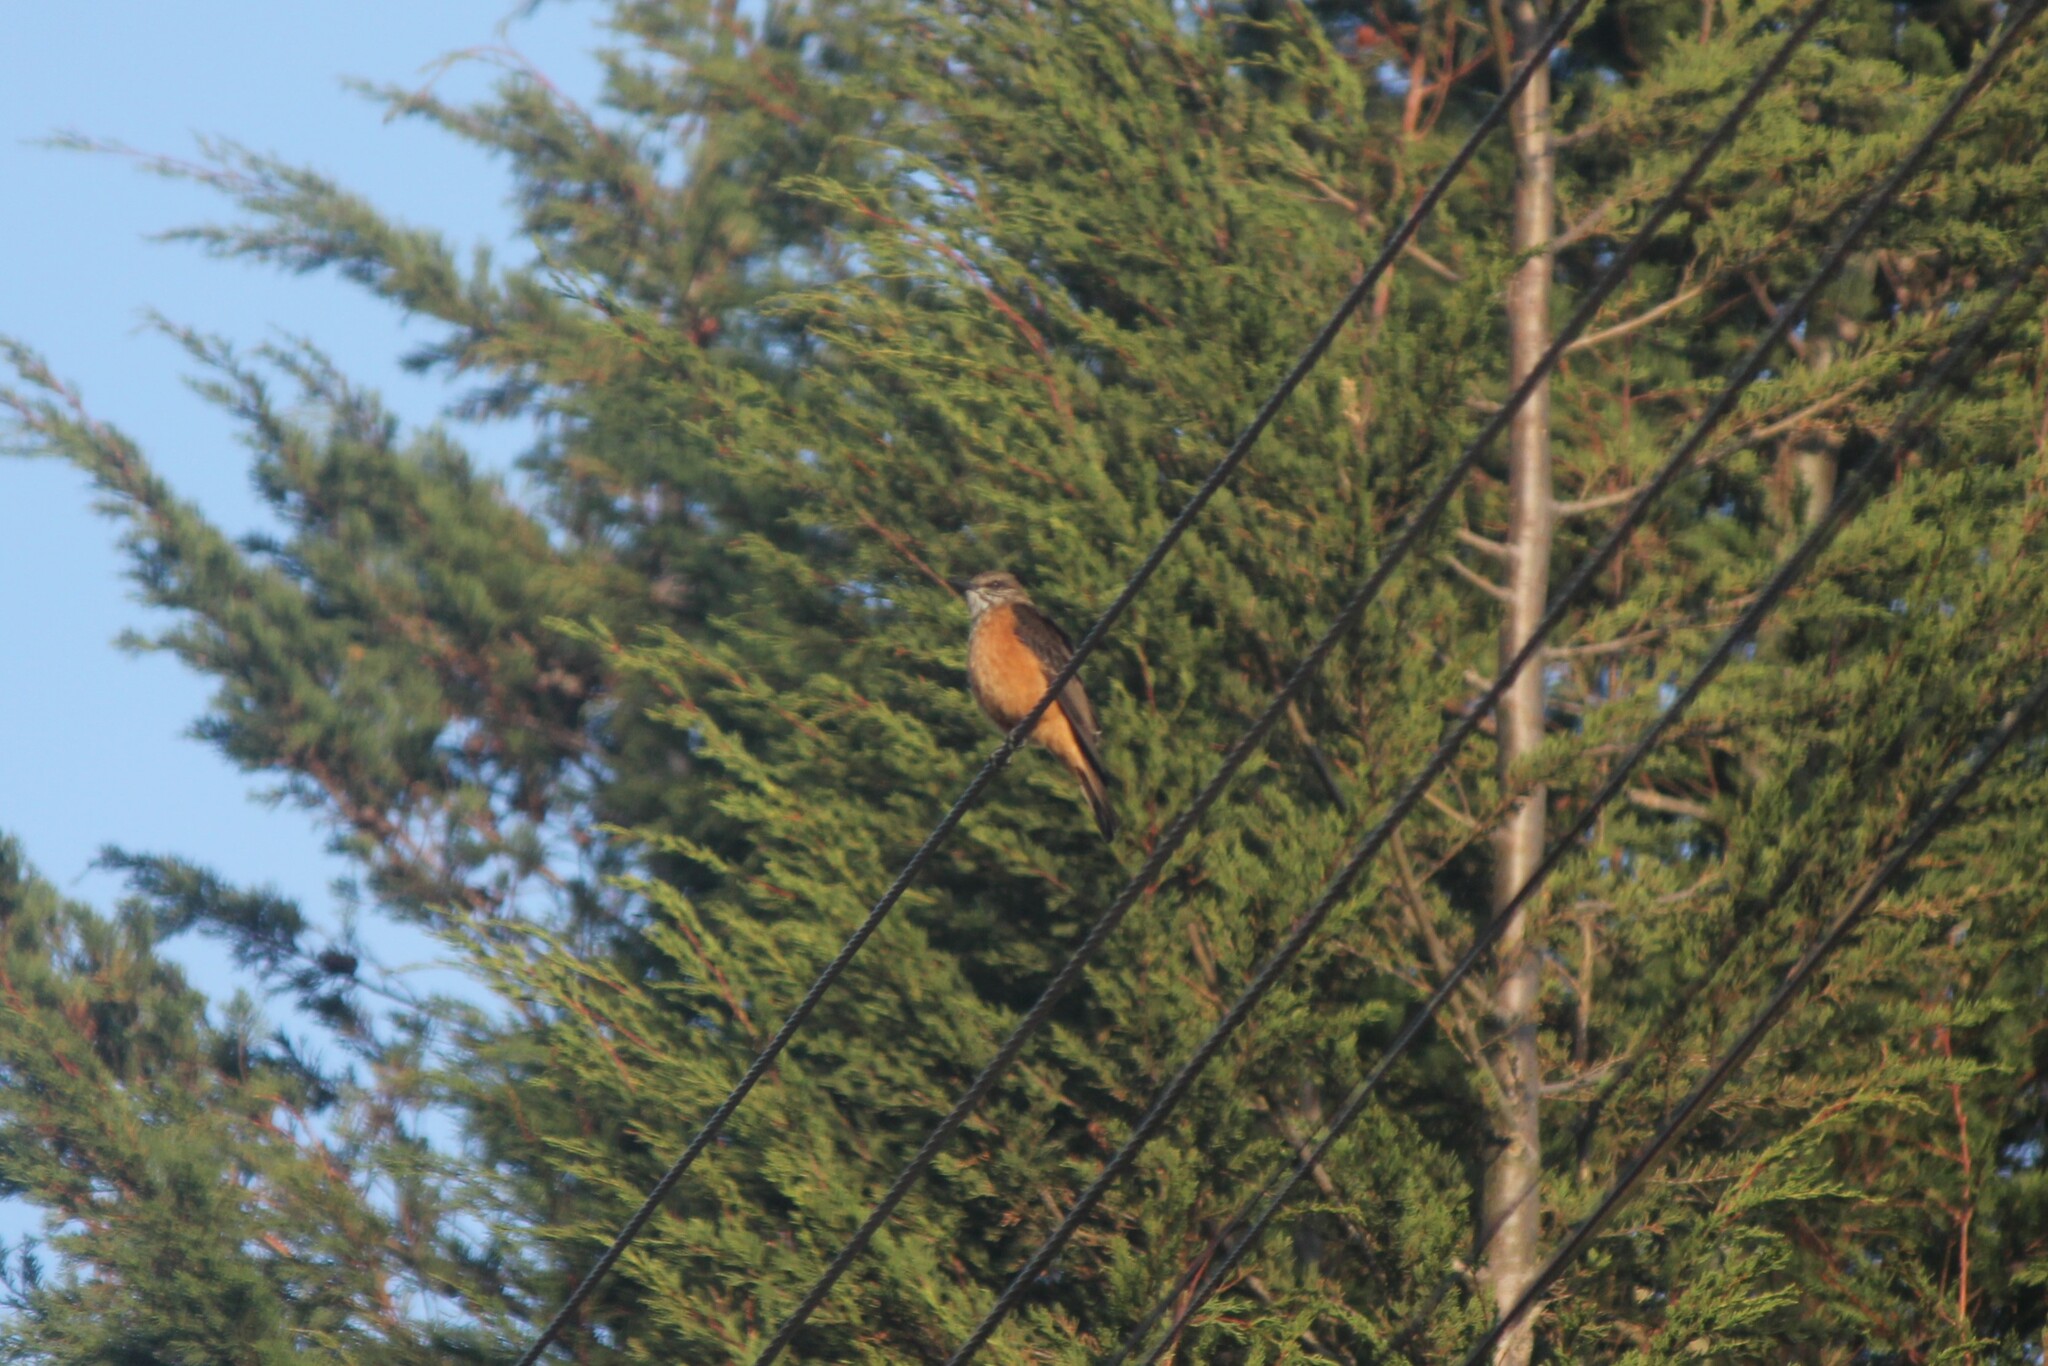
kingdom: Animalia
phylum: Chordata
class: Aves
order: Passeriformes
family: Tyrannidae
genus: Myiotheretes
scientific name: Myiotheretes striaticollis
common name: Streak-throated bush tyrant
